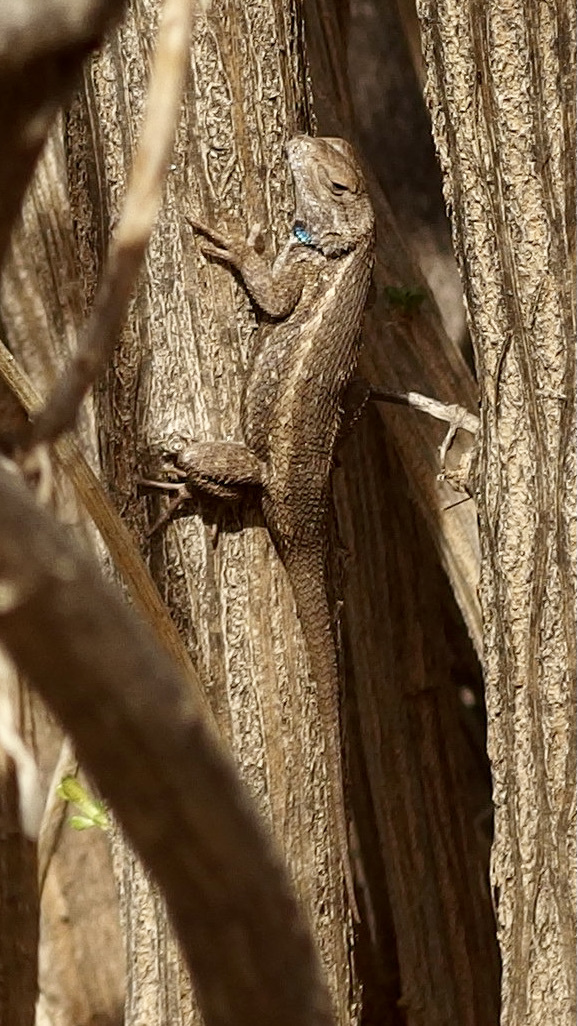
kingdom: Animalia
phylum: Chordata
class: Squamata
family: Phrynosomatidae
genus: Sceloporus
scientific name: Sceloporus cowlesi
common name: White sands prairie lizard
